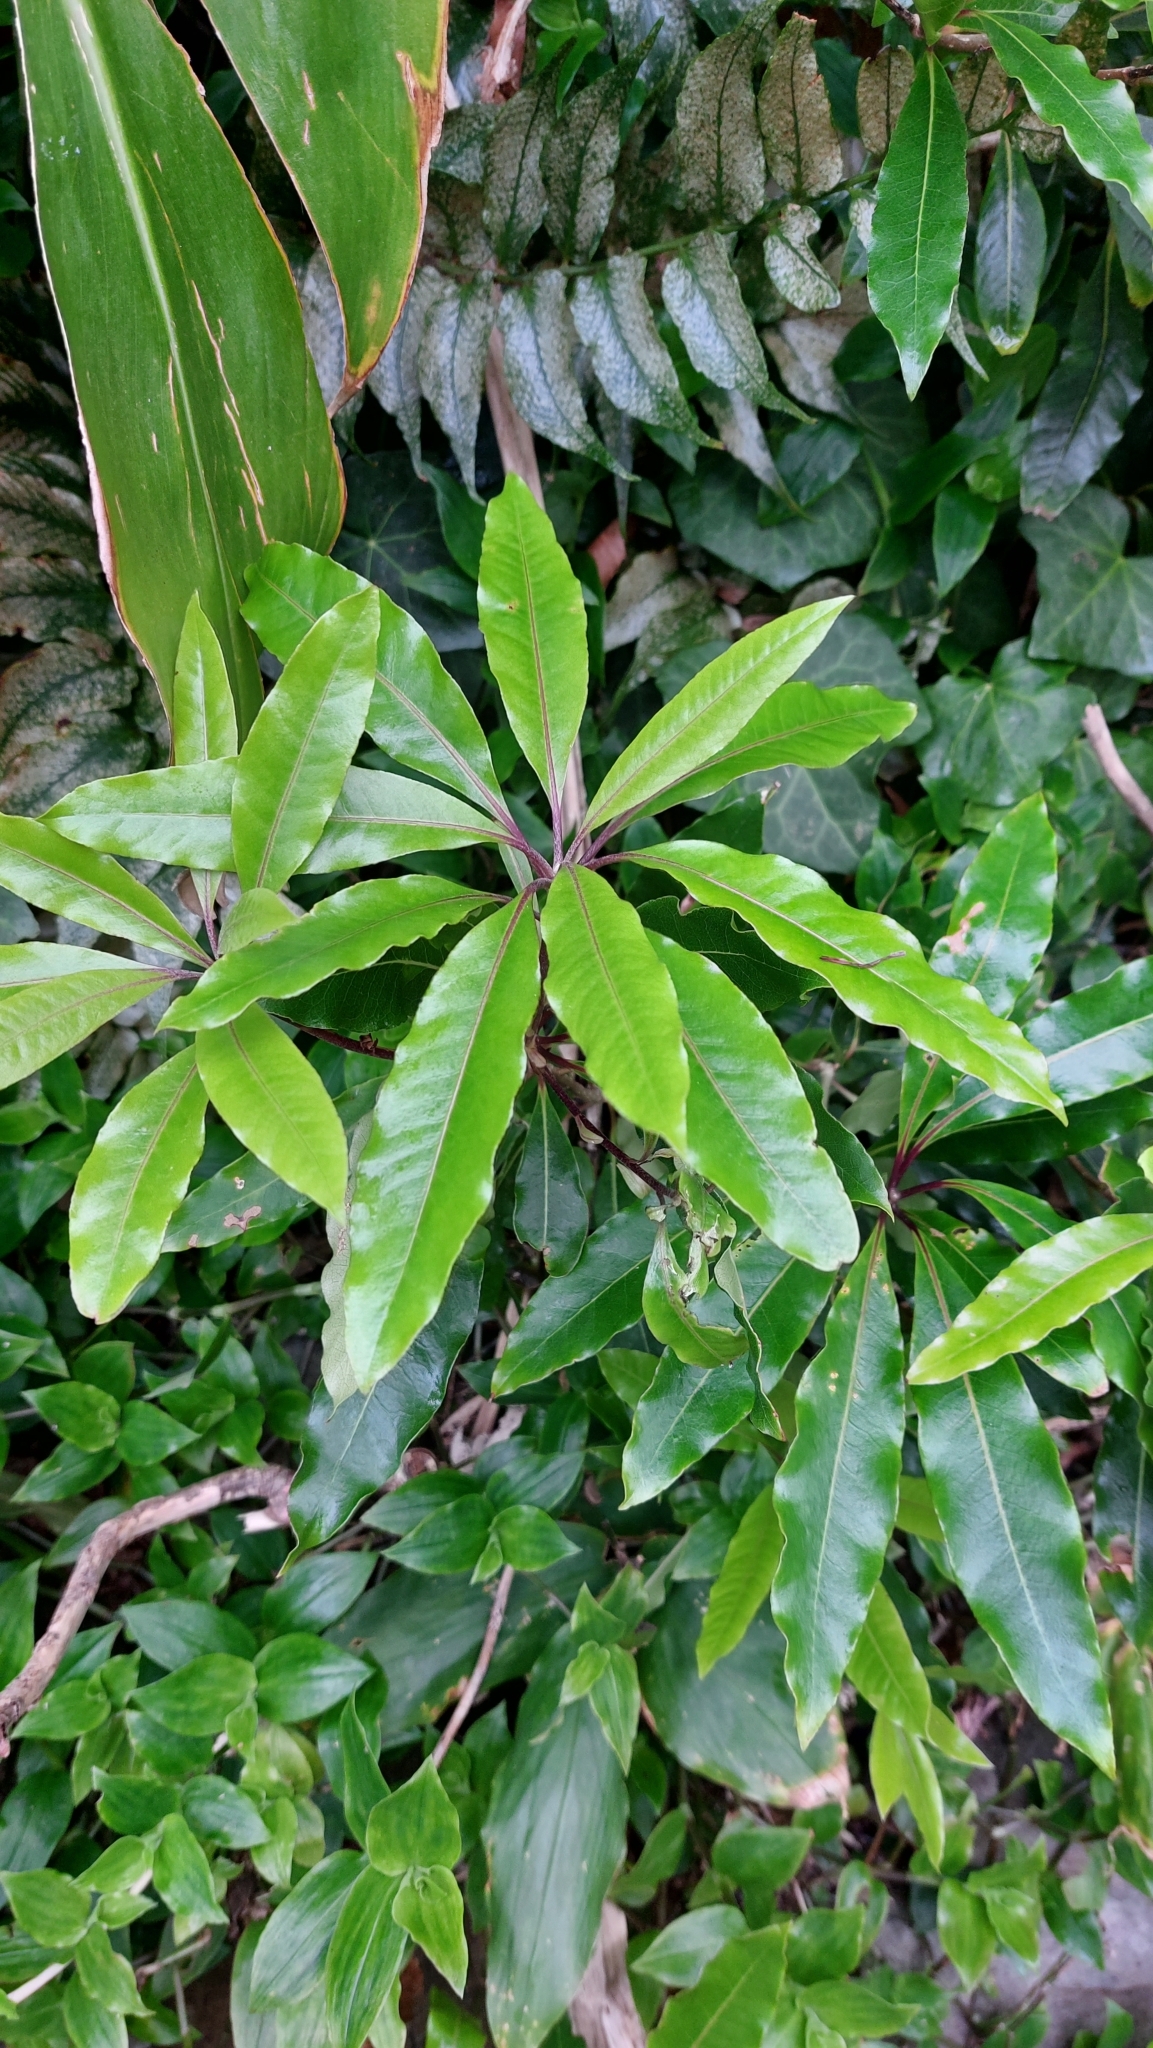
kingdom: Plantae
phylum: Tracheophyta
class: Magnoliopsida
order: Apiales
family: Pittosporaceae
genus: Pittosporum
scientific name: Pittosporum undulatum
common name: Australian cheesewood
